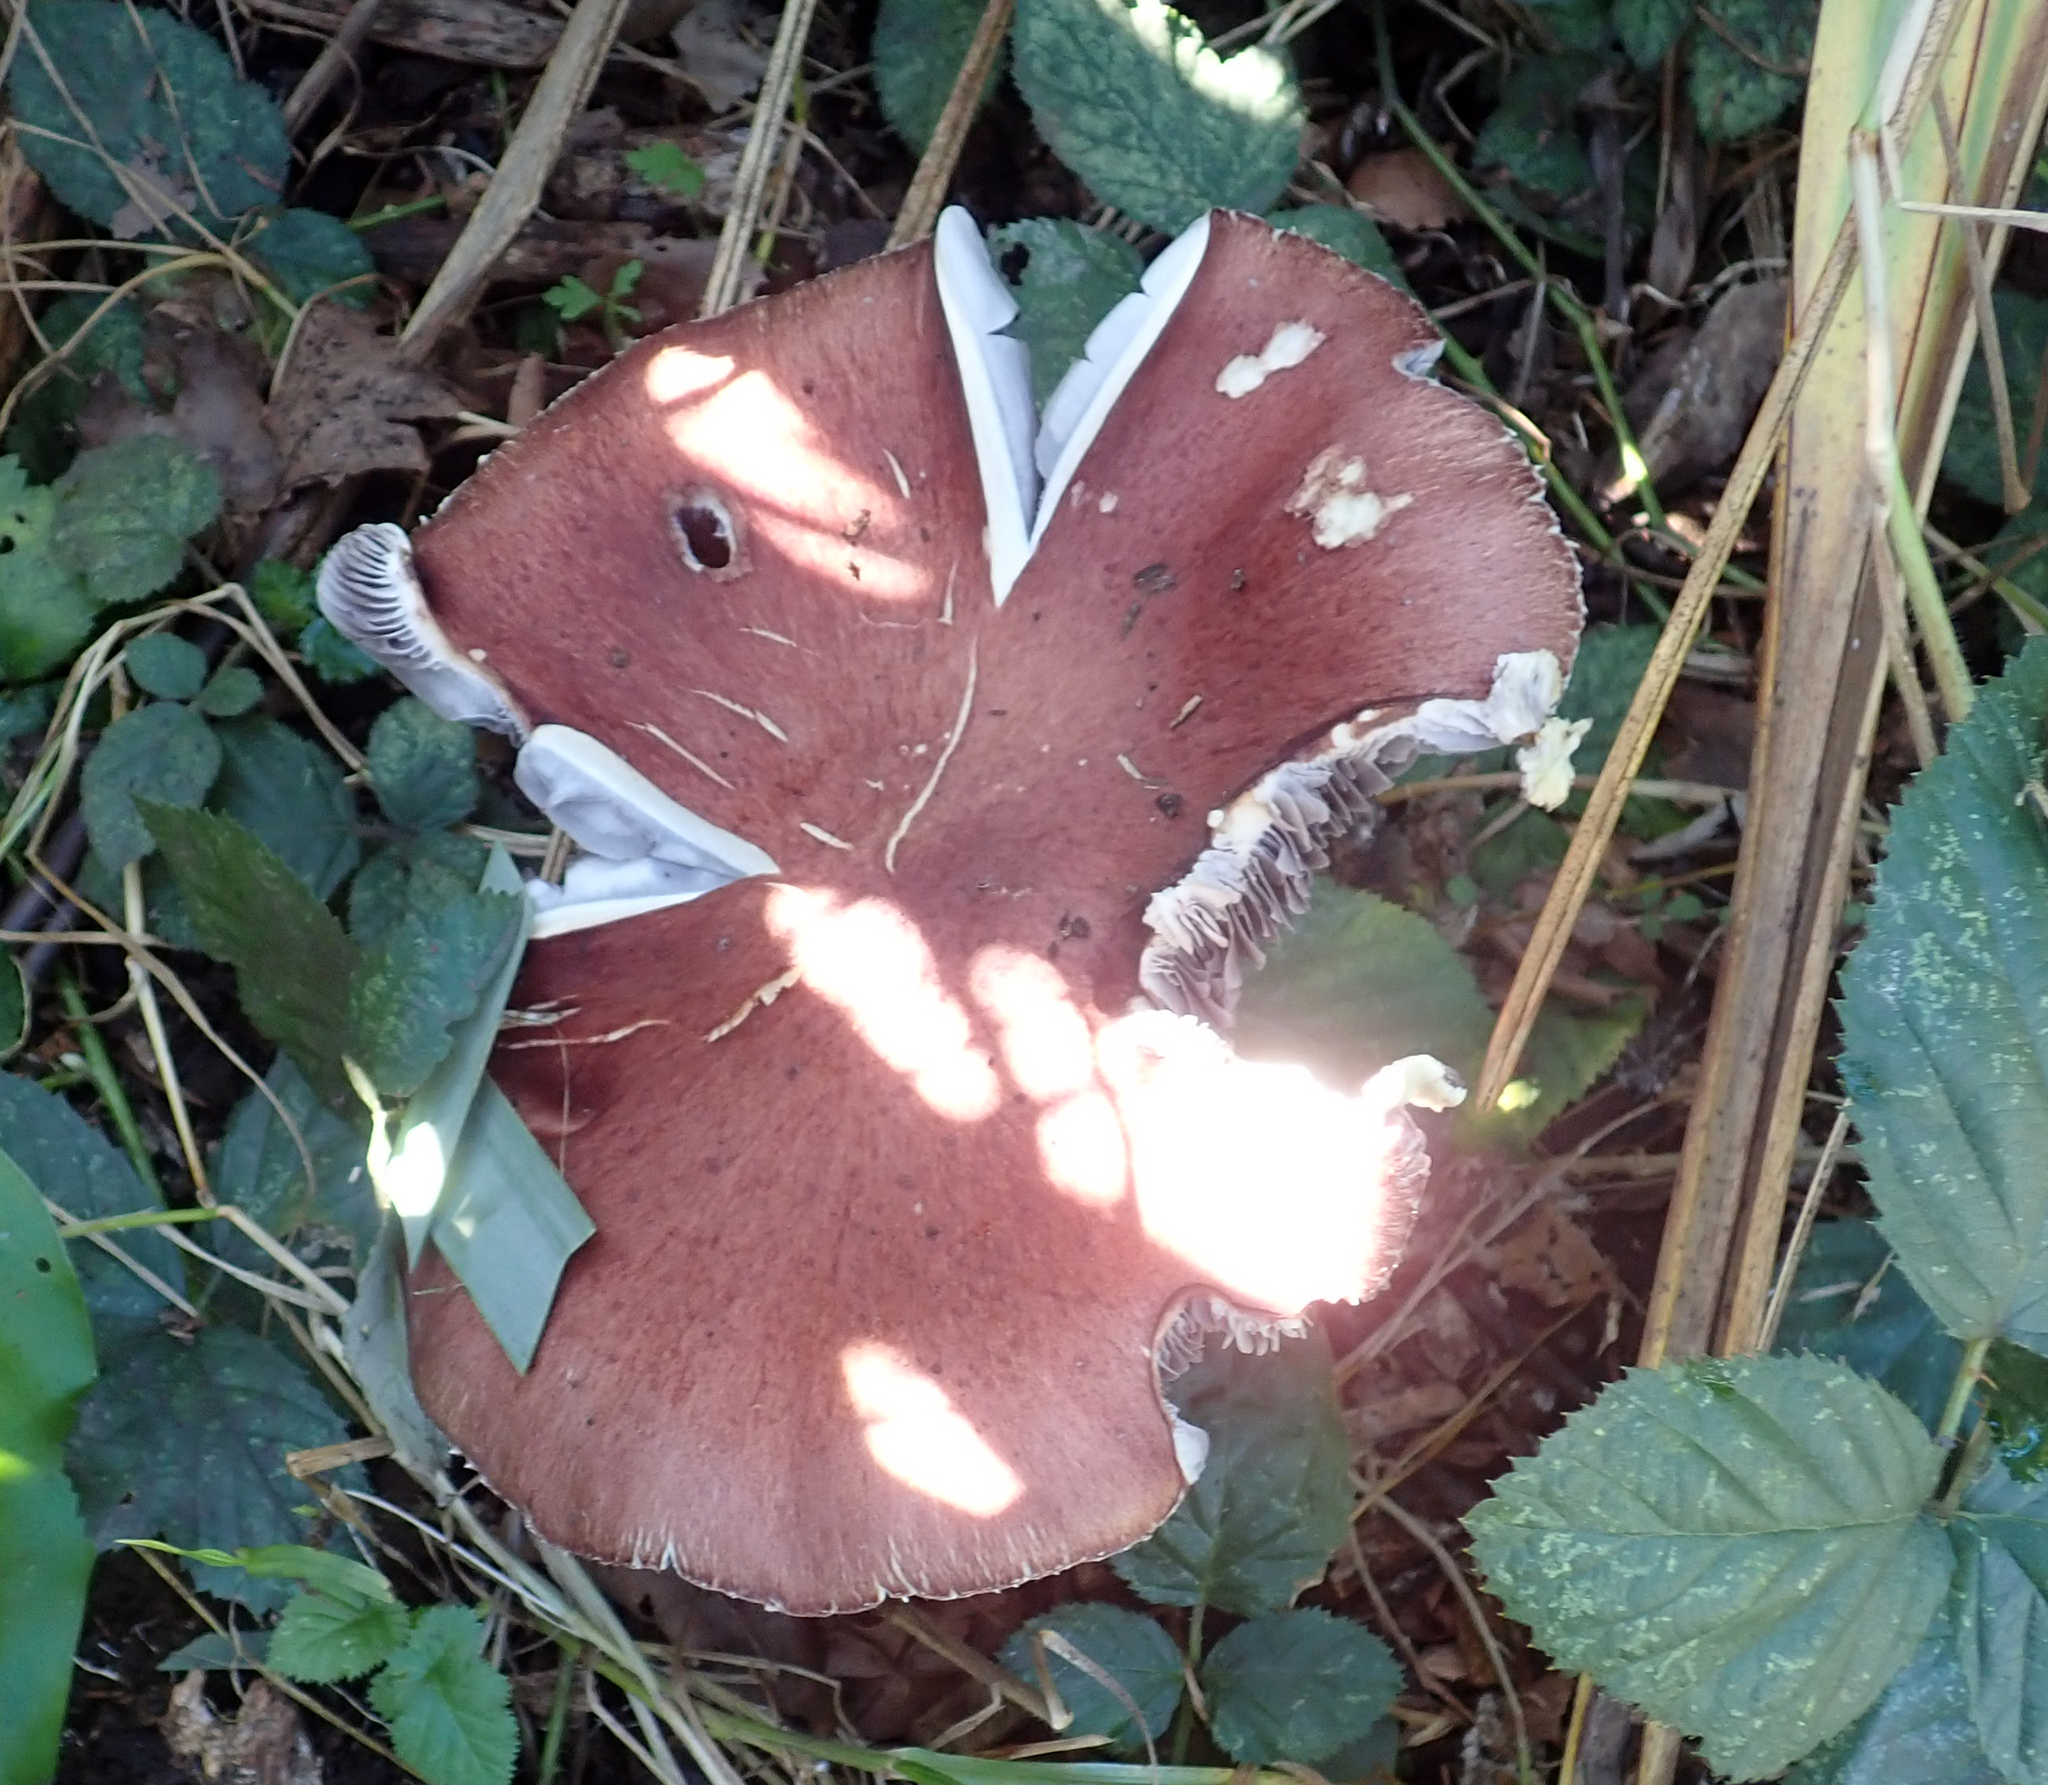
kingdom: Fungi
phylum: Basidiomycota
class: Agaricomycetes
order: Agaricales
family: Strophariaceae
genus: Stropharia
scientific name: Stropharia rugosoannulata
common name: Wine roundhead
